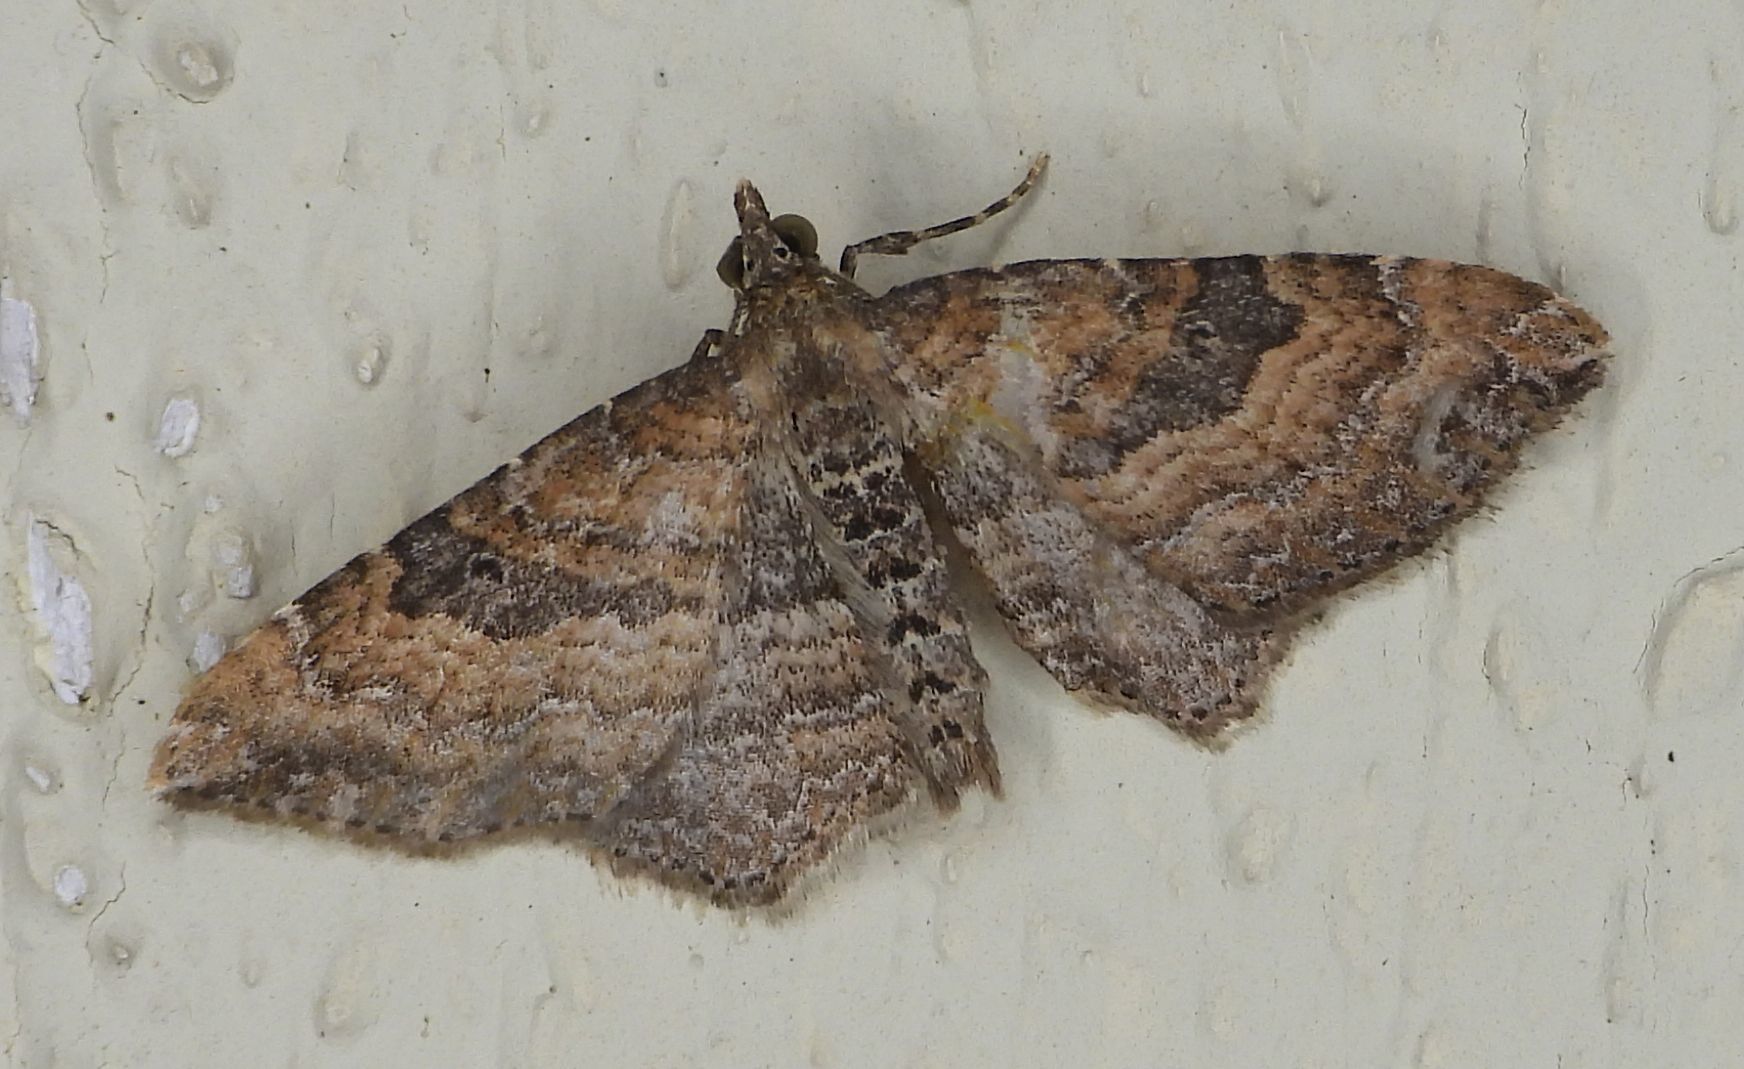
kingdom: Animalia
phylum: Arthropoda
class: Insecta
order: Lepidoptera
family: Geometridae
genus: Orthonama
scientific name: Orthonama obstipata
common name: The gem
